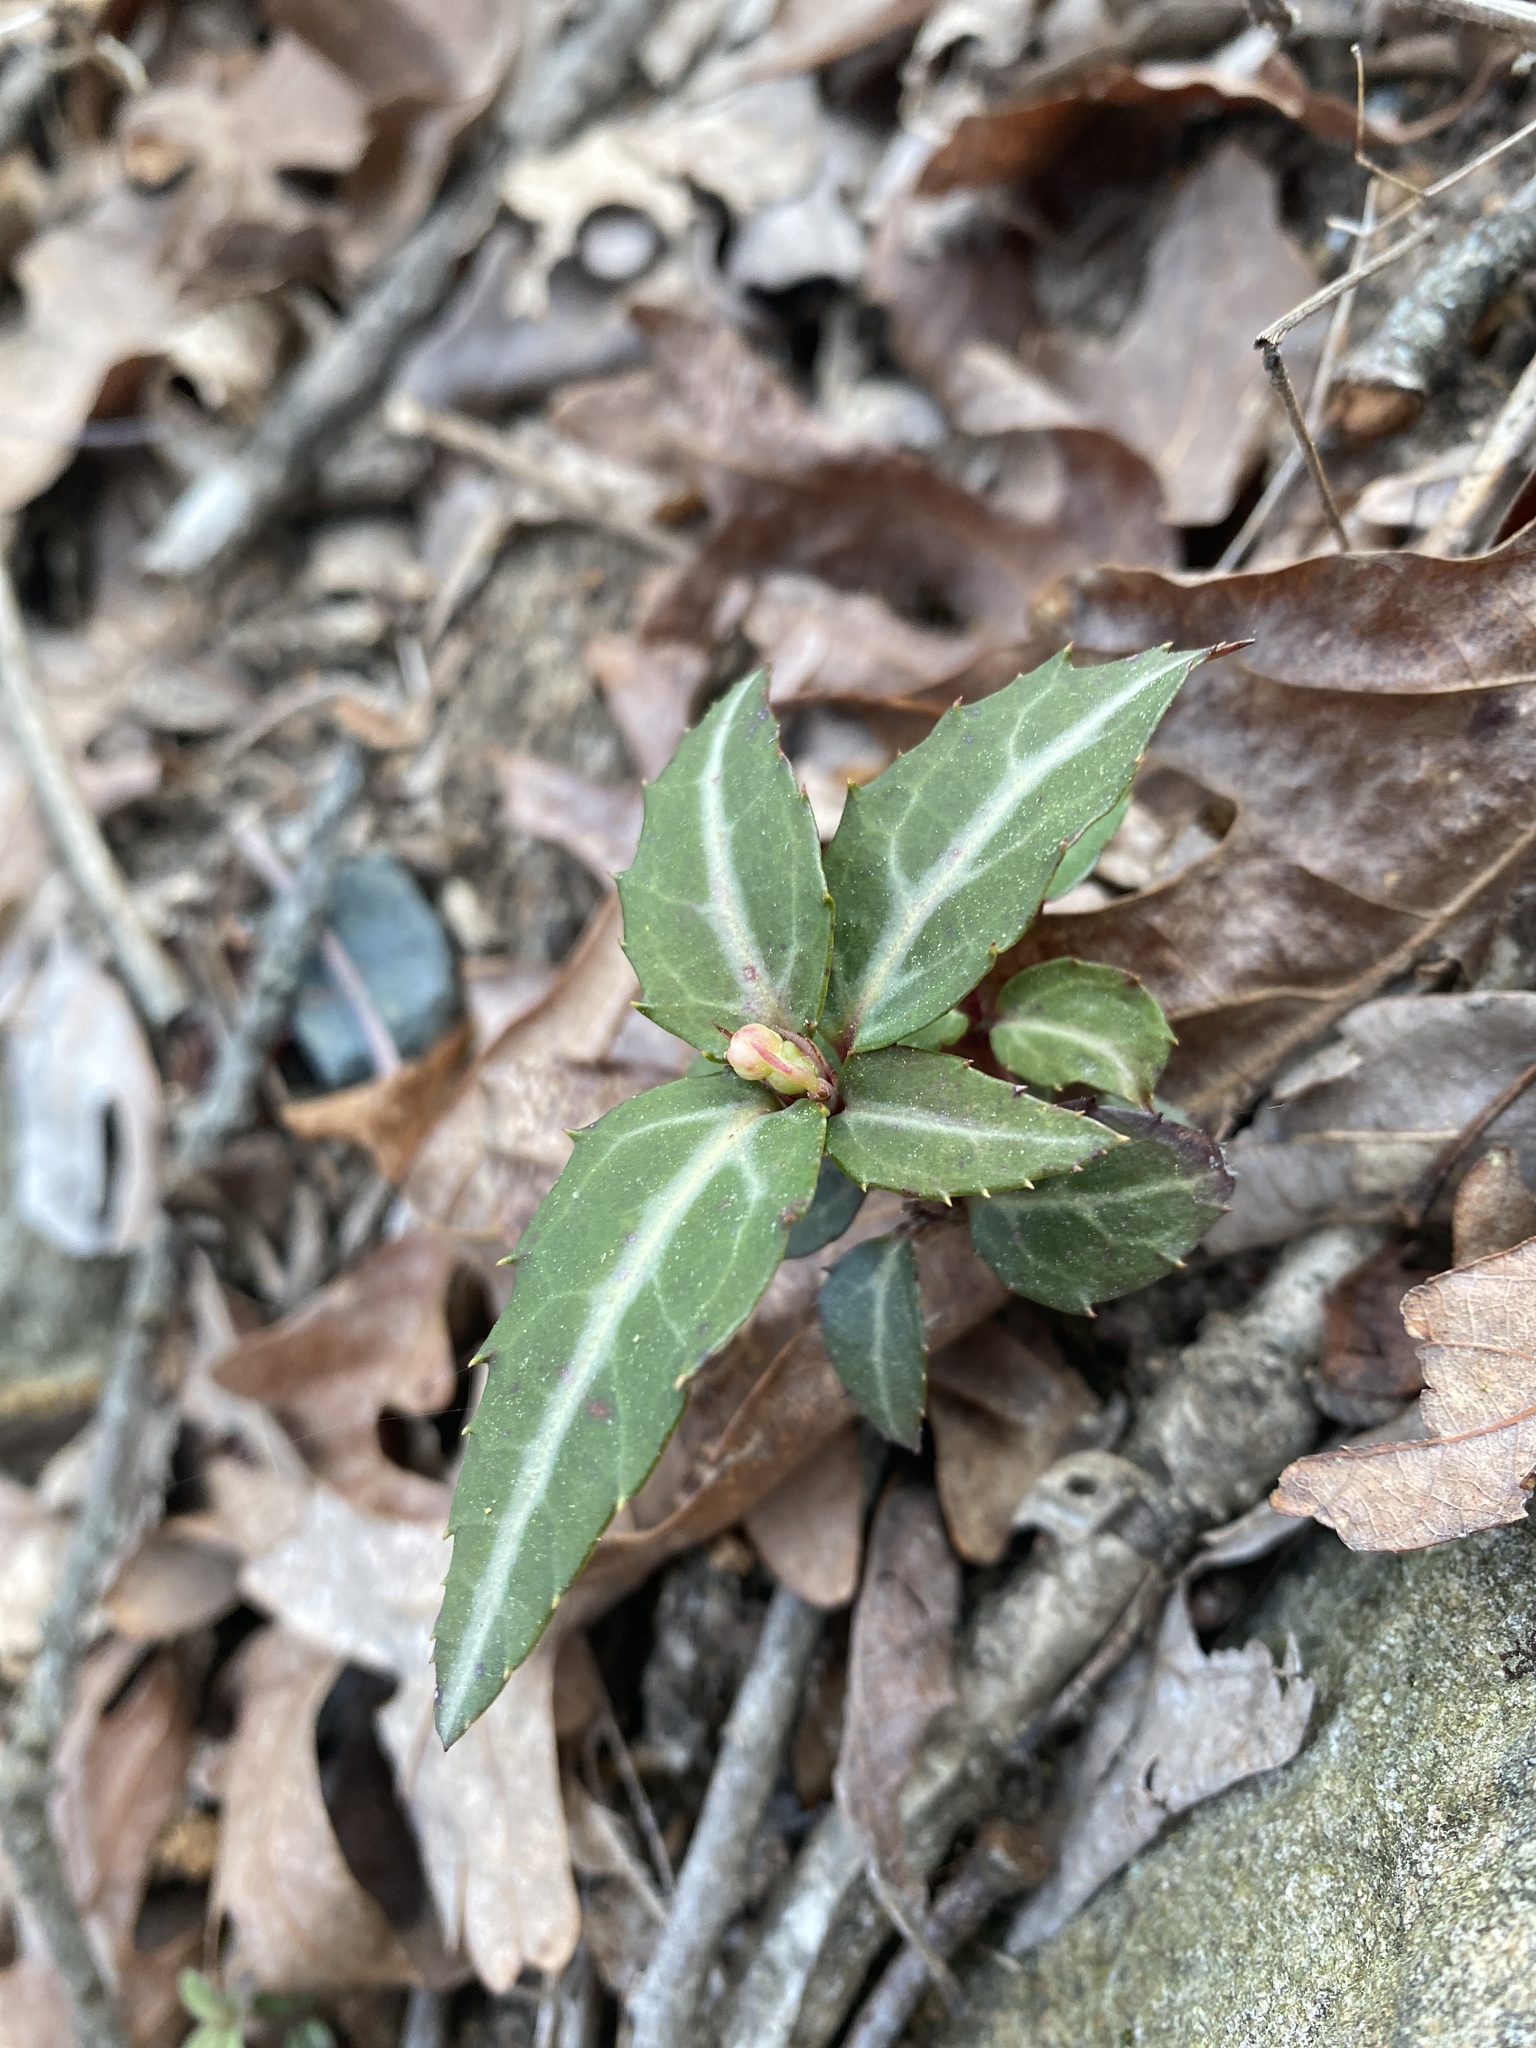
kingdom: Plantae
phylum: Tracheophyta
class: Magnoliopsida
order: Ericales
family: Ericaceae
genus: Chimaphila
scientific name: Chimaphila maculata
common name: Spotted pipsissewa
